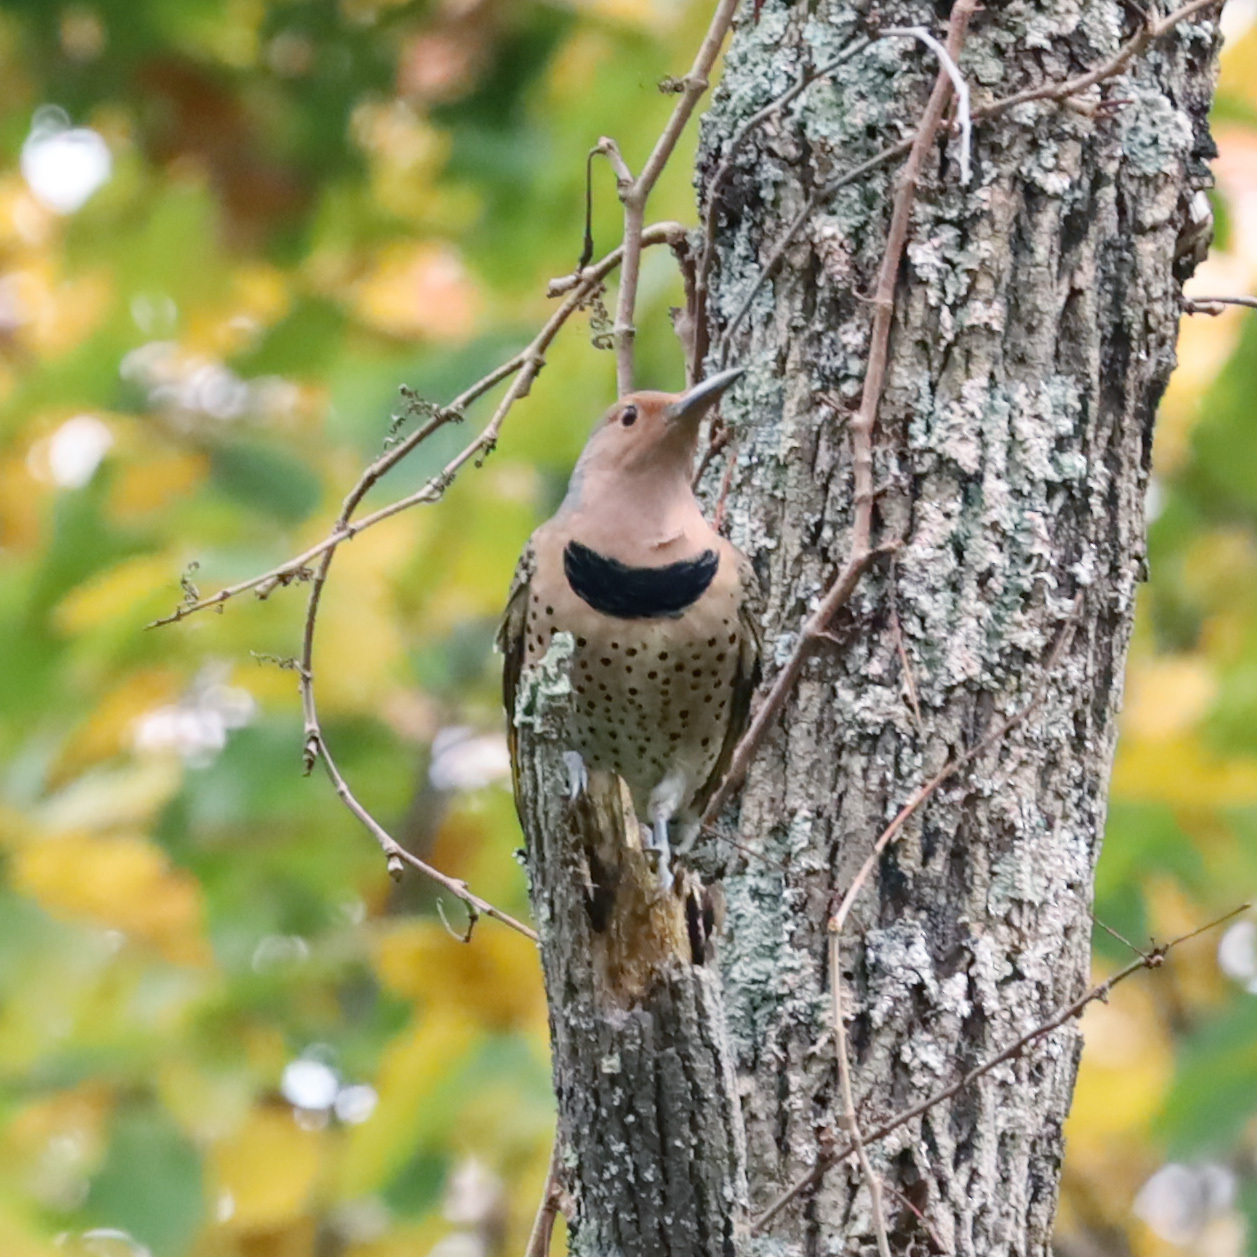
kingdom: Animalia
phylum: Chordata
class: Aves
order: Piciformes
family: Picidae
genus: Colaptes
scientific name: Colaptes auratus
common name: Northern flicker
